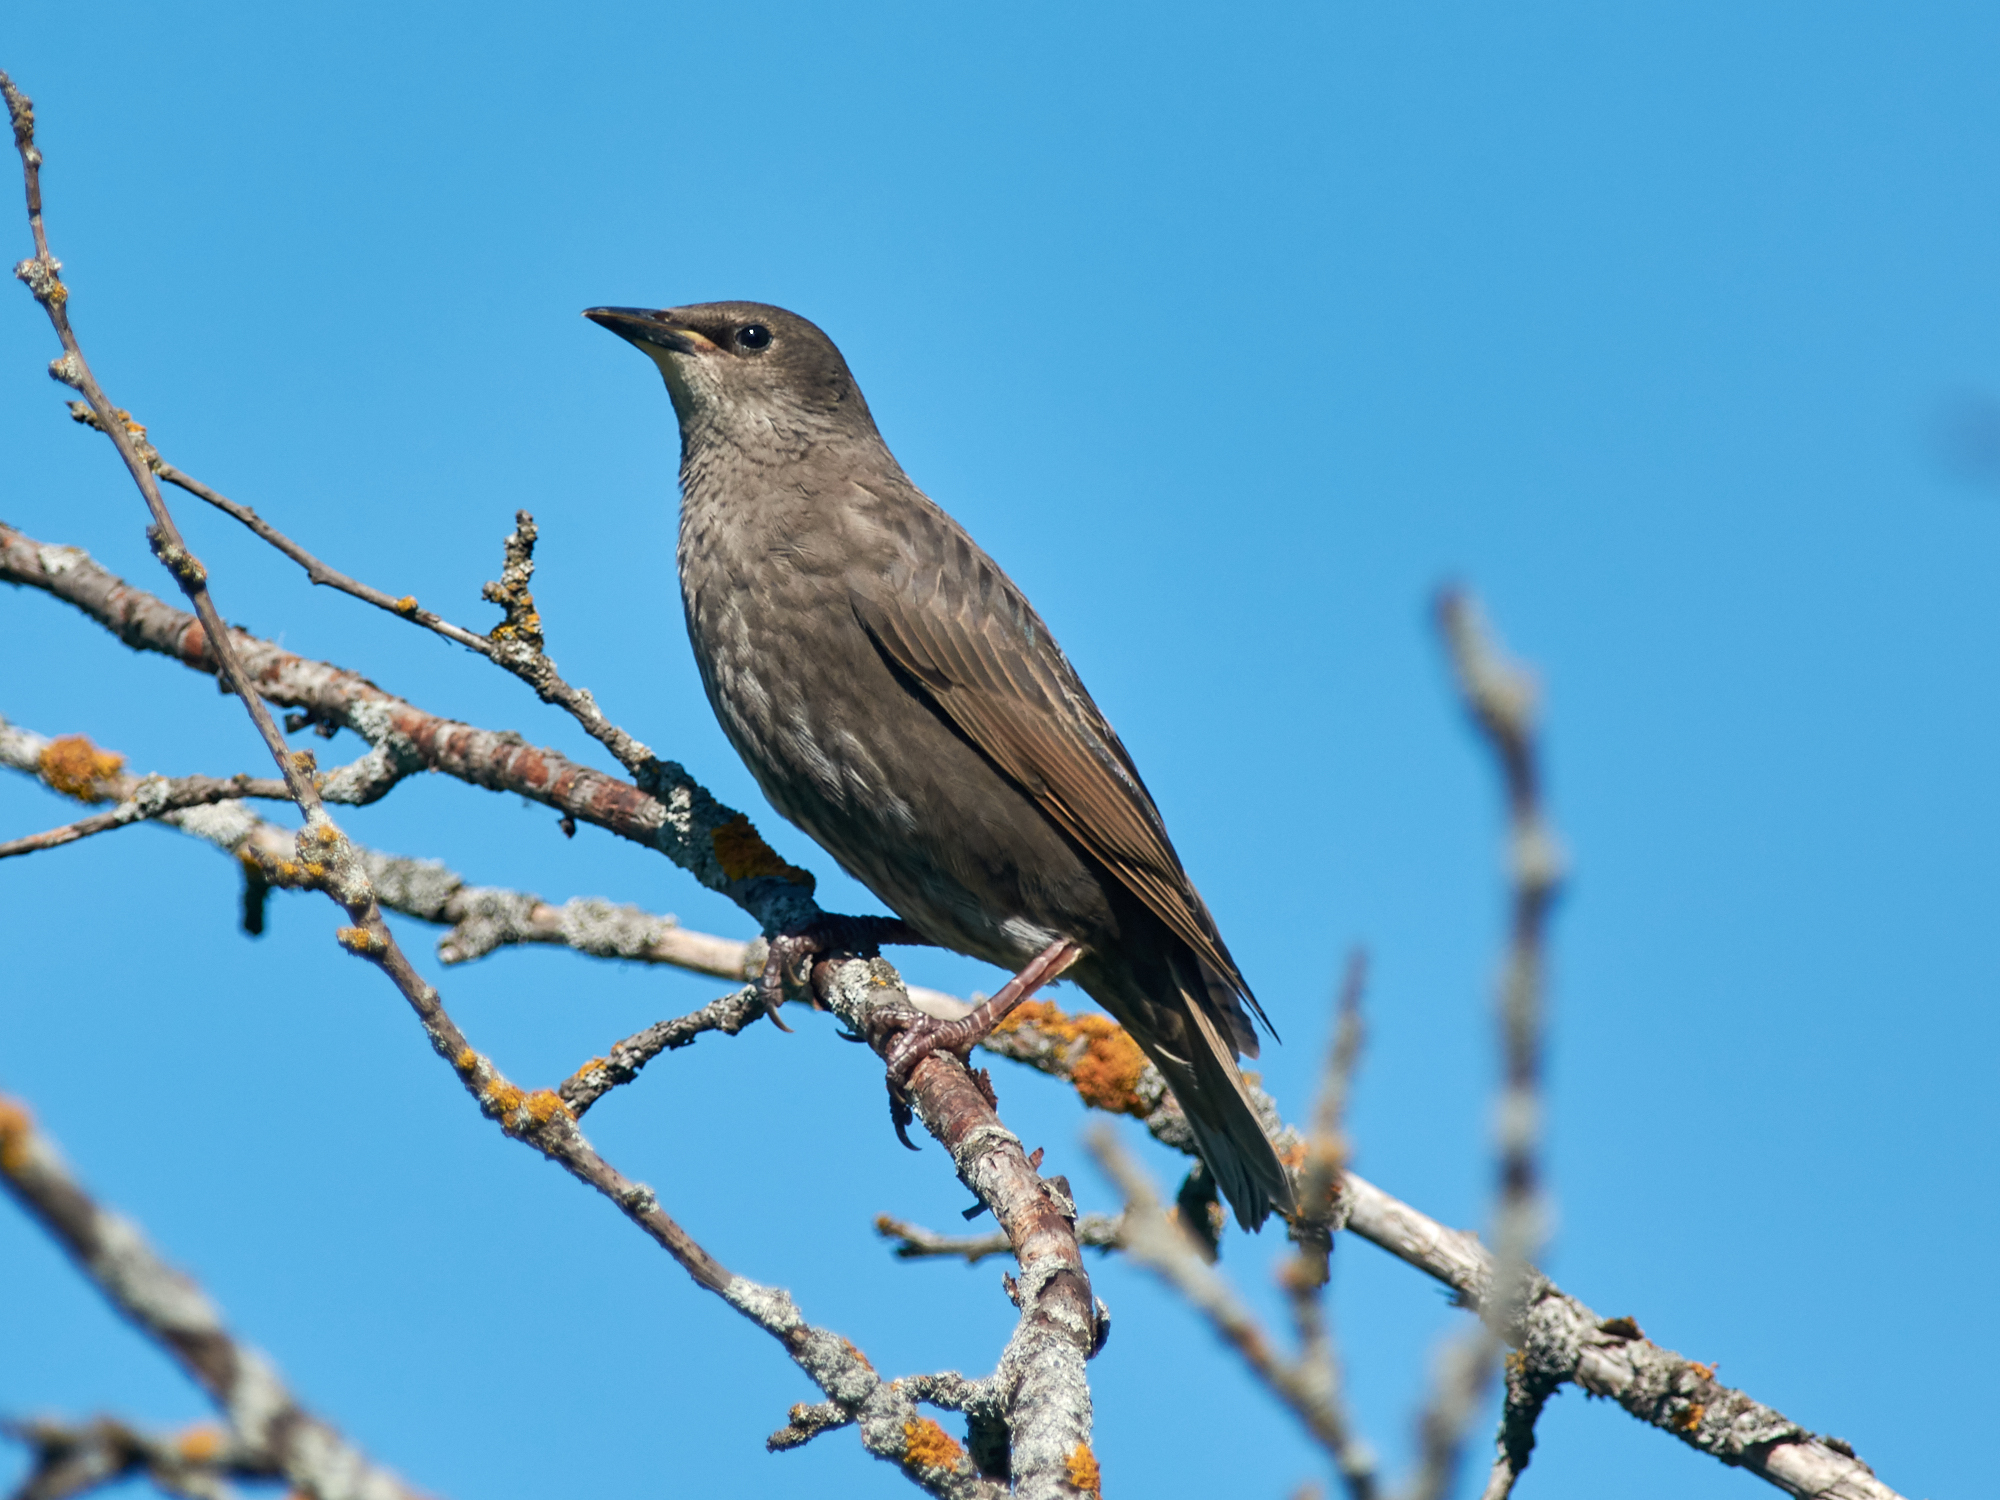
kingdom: Animalia
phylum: Chordata
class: Aves
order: Passeriformes
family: Sturnidae
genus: Sturnus
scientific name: Sturnus vulgaris
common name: Common starling
